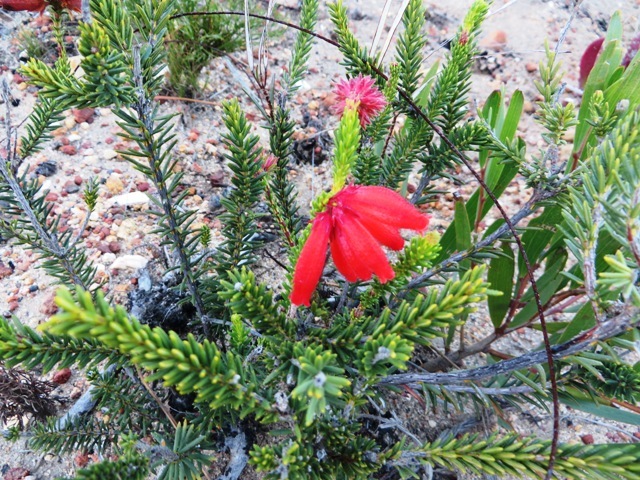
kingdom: Plantae
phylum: Tracheophyta
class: Magnoliopsida
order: Ericales
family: Ericaceae
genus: Erica
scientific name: Erica cerinthoides
